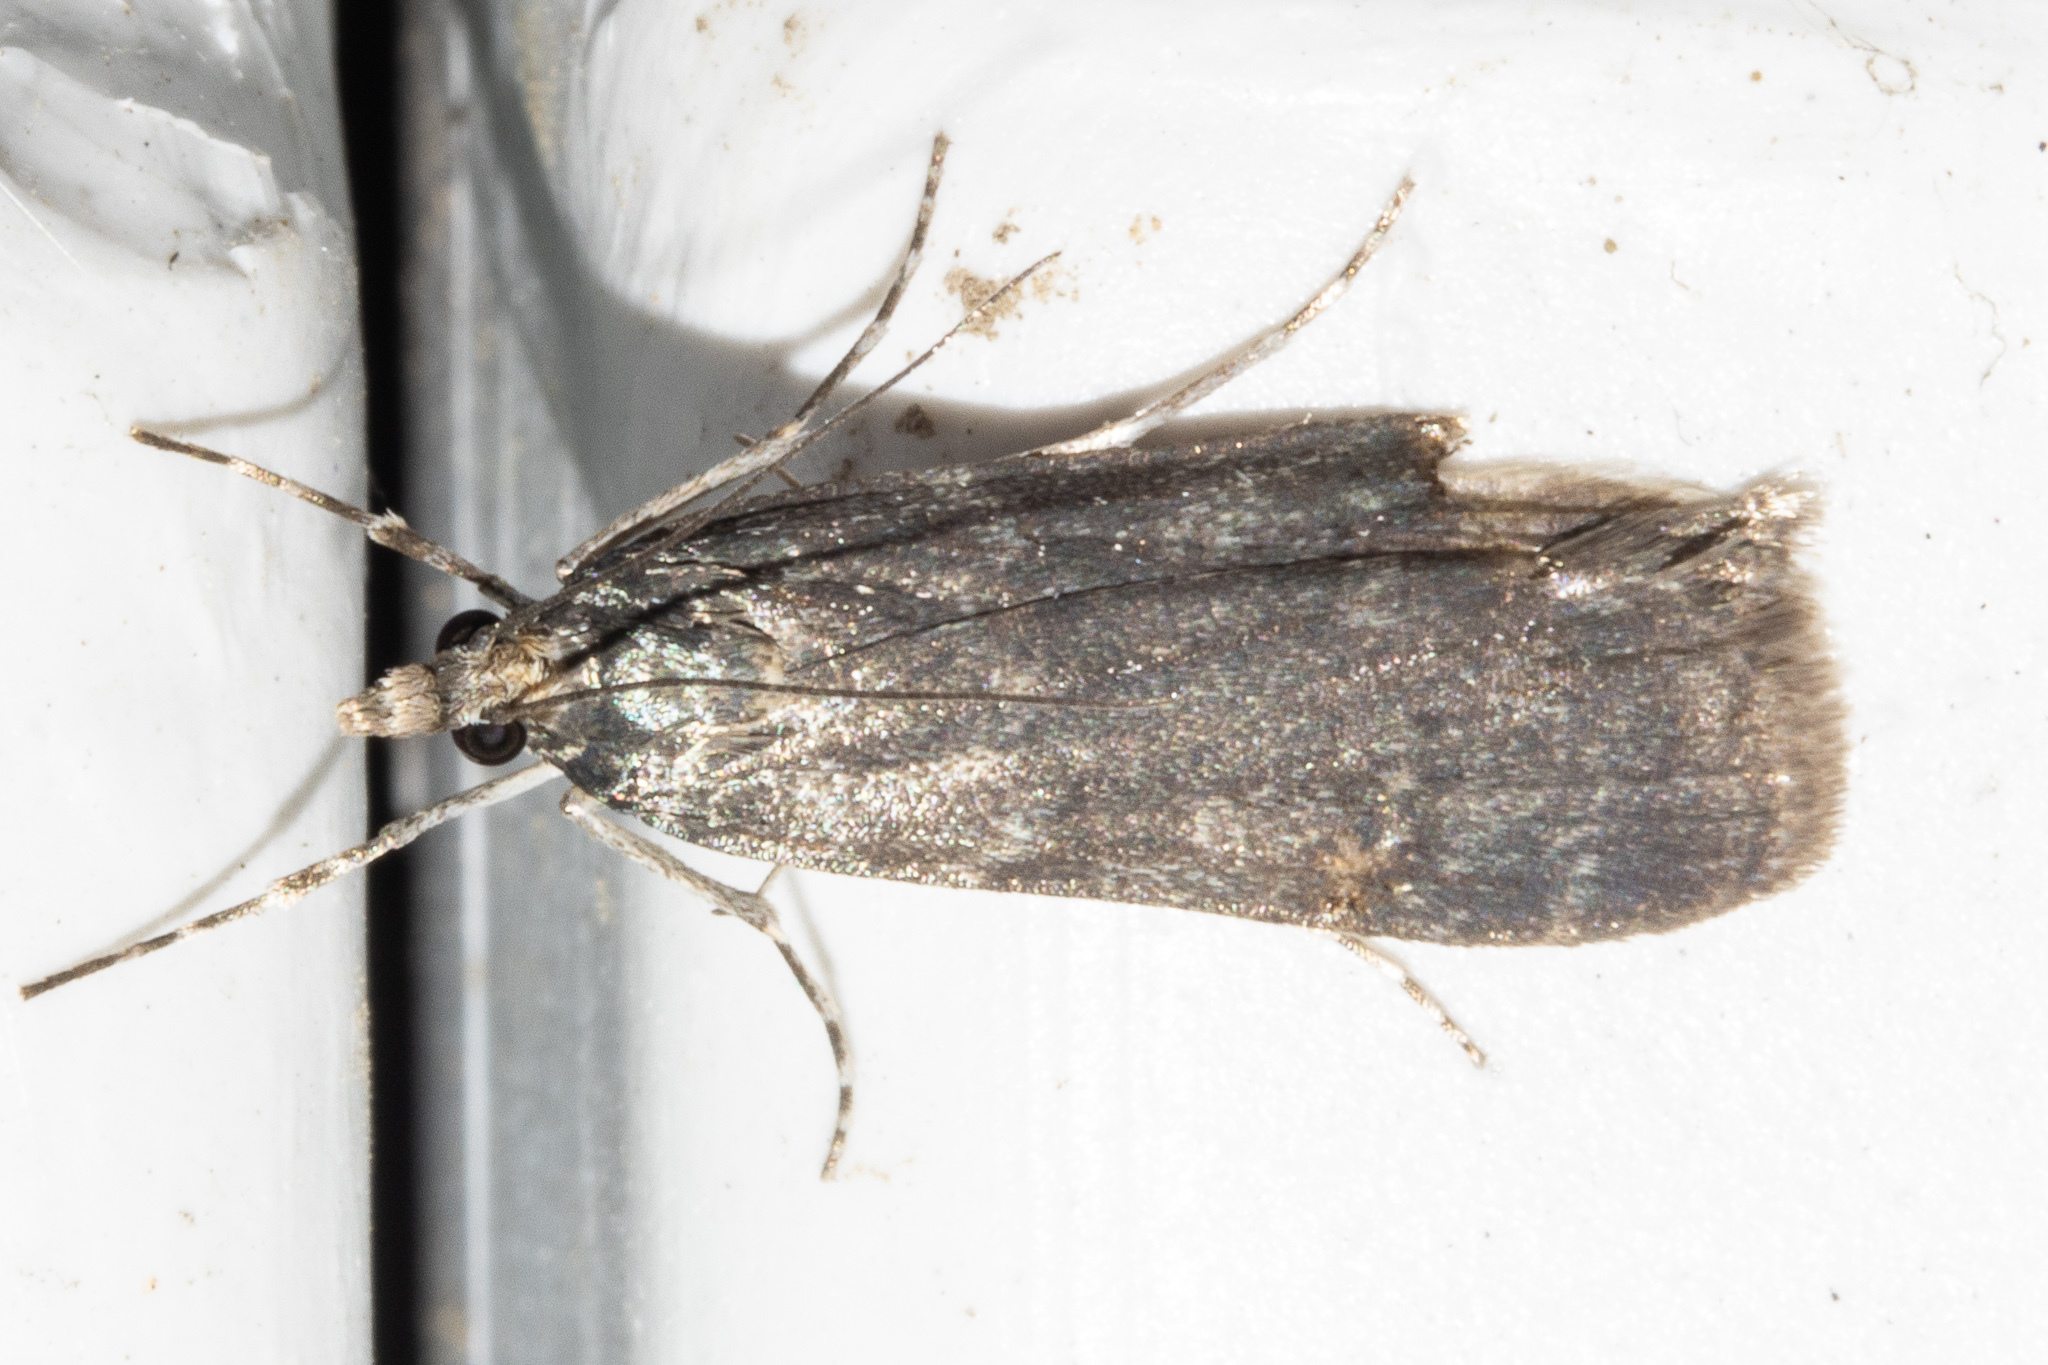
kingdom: Animalia
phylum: Arthropoda
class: Insecta
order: Lepidoptera
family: Crambidae
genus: Eudonia
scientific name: Eudonia cataxesta
